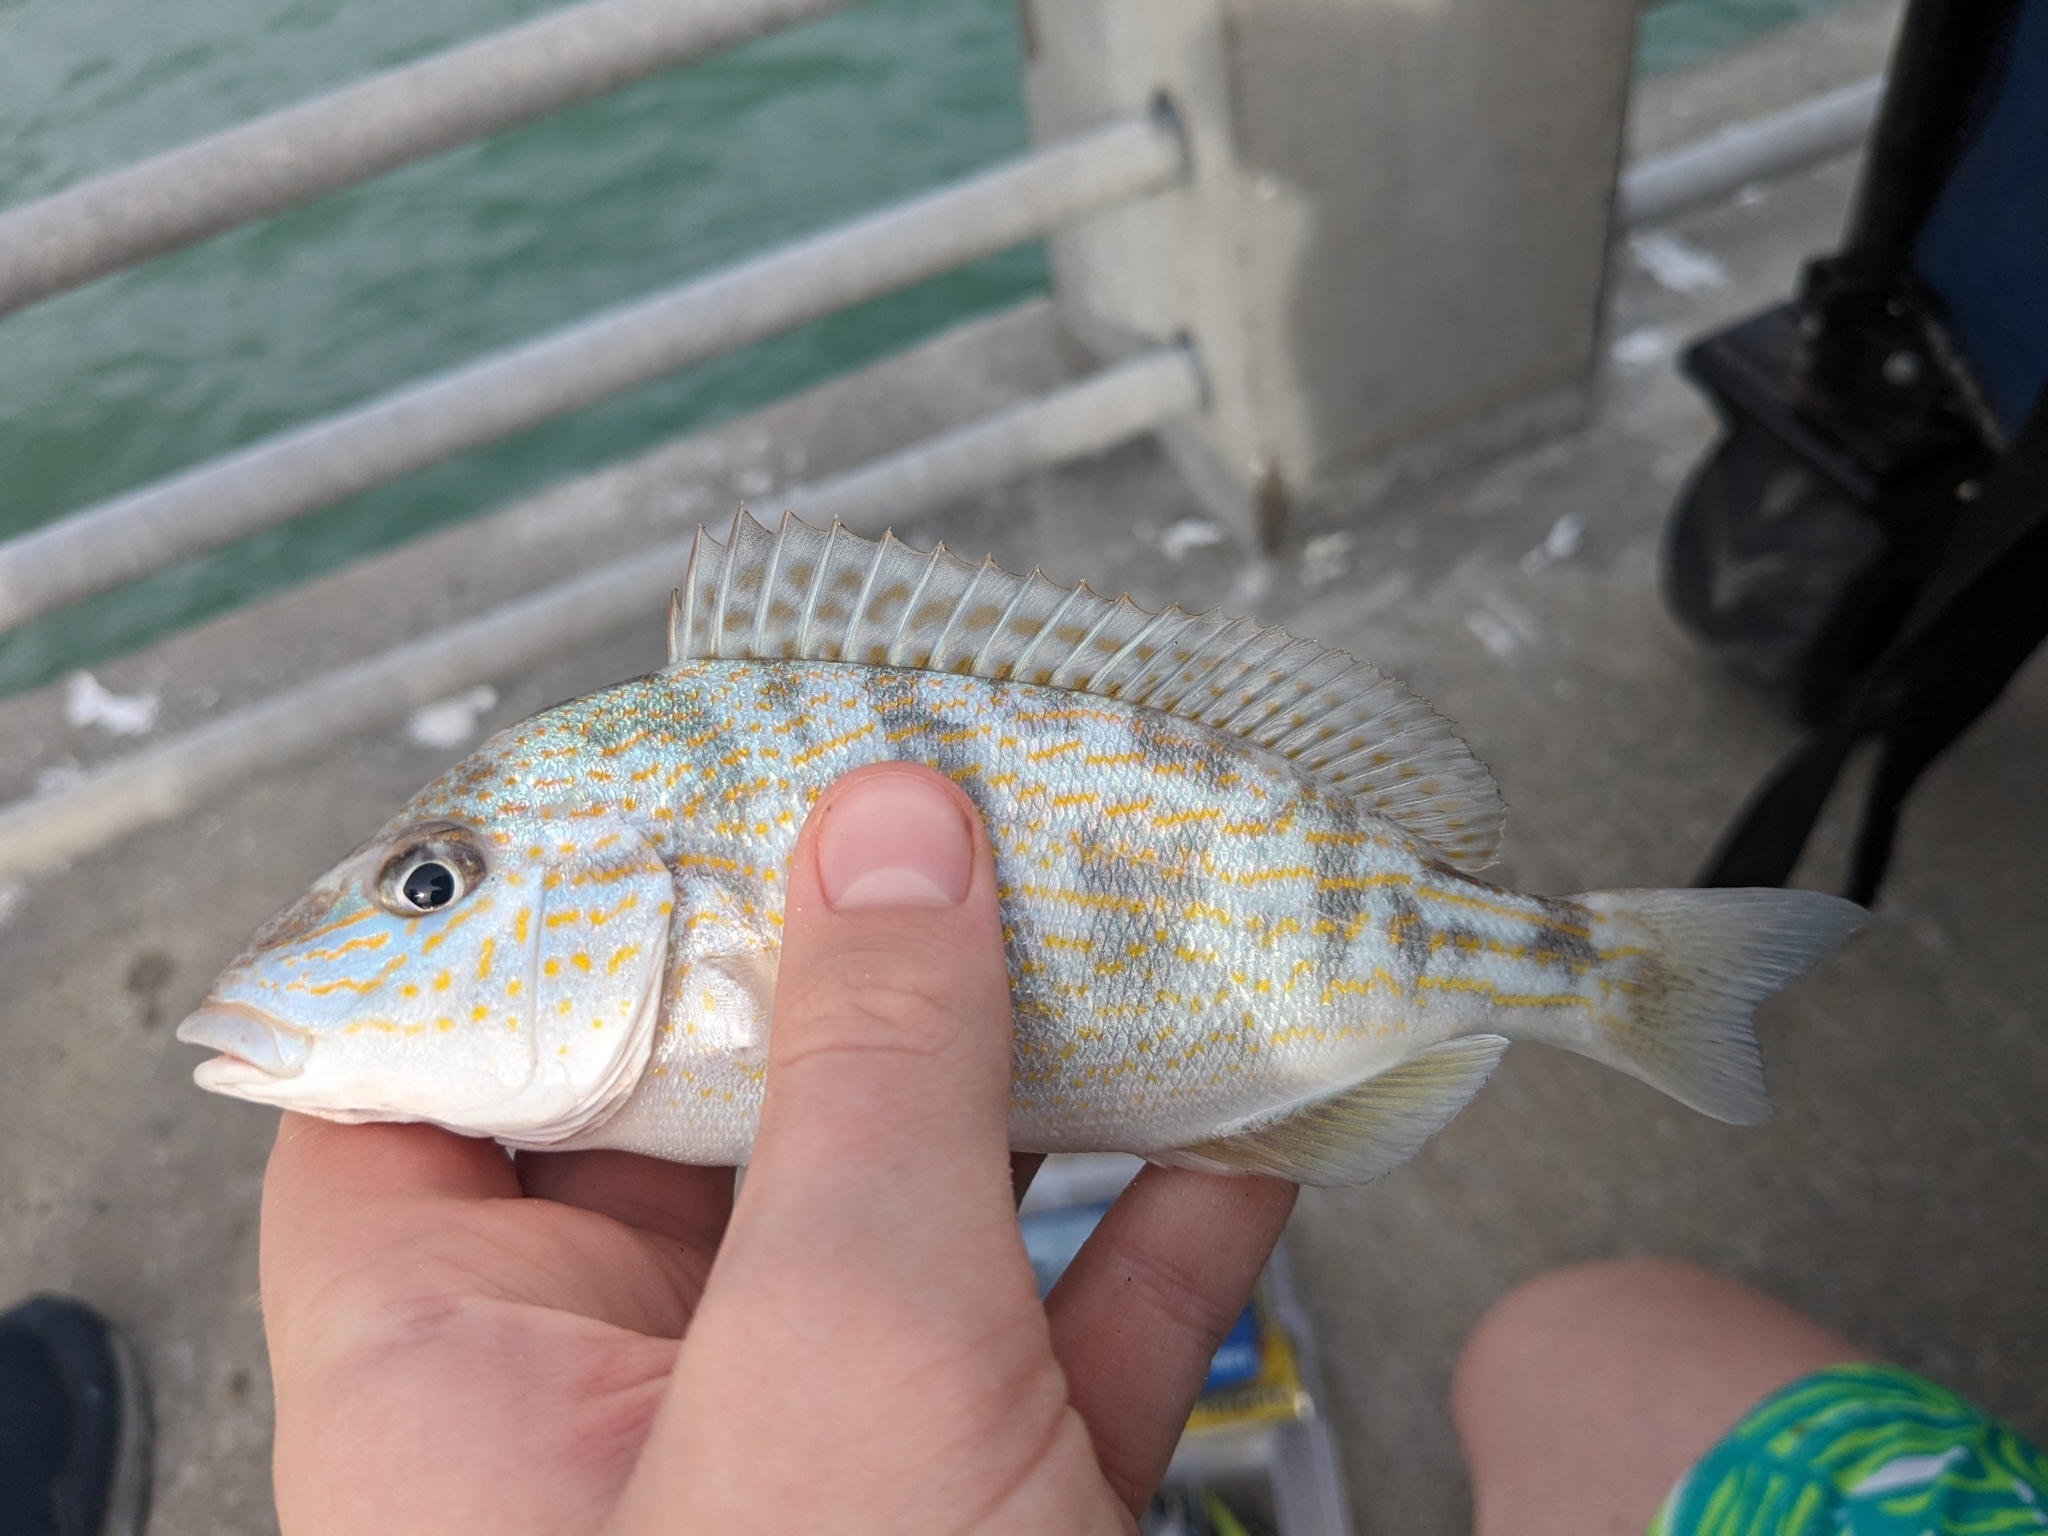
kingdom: Animalia
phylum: Chordata
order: Perciformes
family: Haemulidae
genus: Orthopristis
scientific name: Orthopristis chrysoptera
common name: Pigfish
